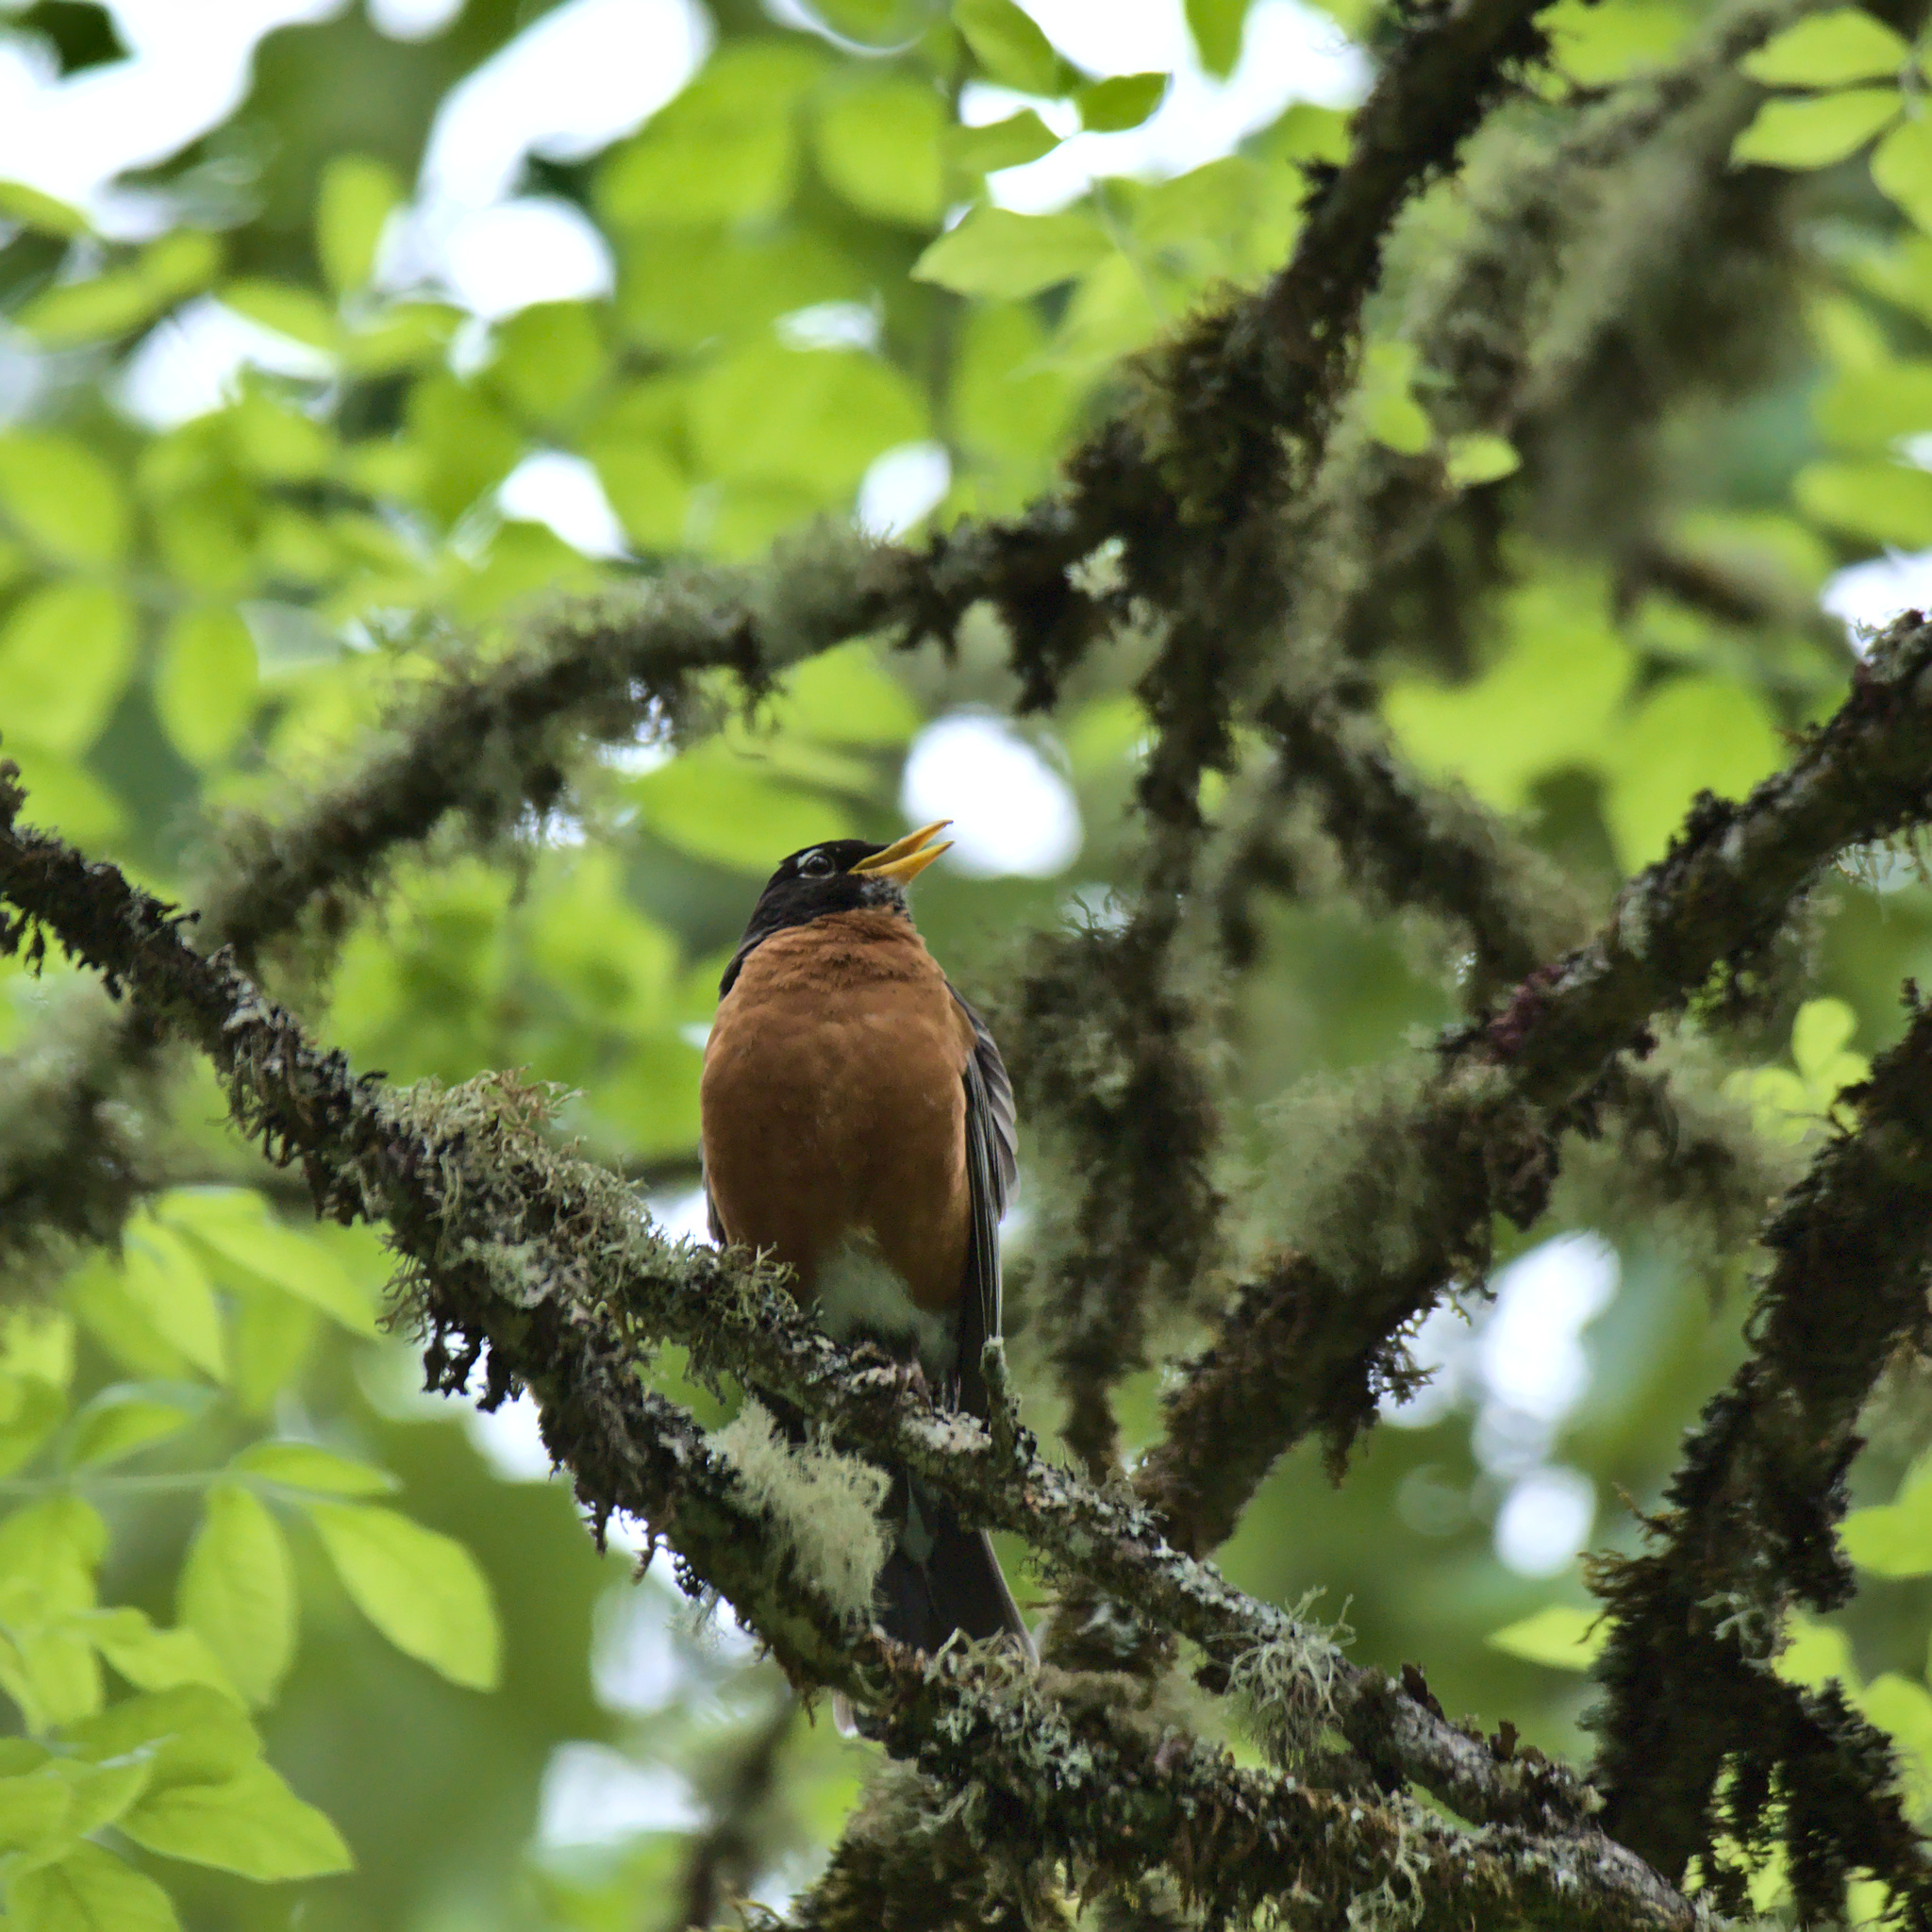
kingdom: Animalia
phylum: Chordata
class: Aves
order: Passeriformes
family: Turdidae
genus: Turdus
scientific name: Turdus migratorius
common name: American robin
